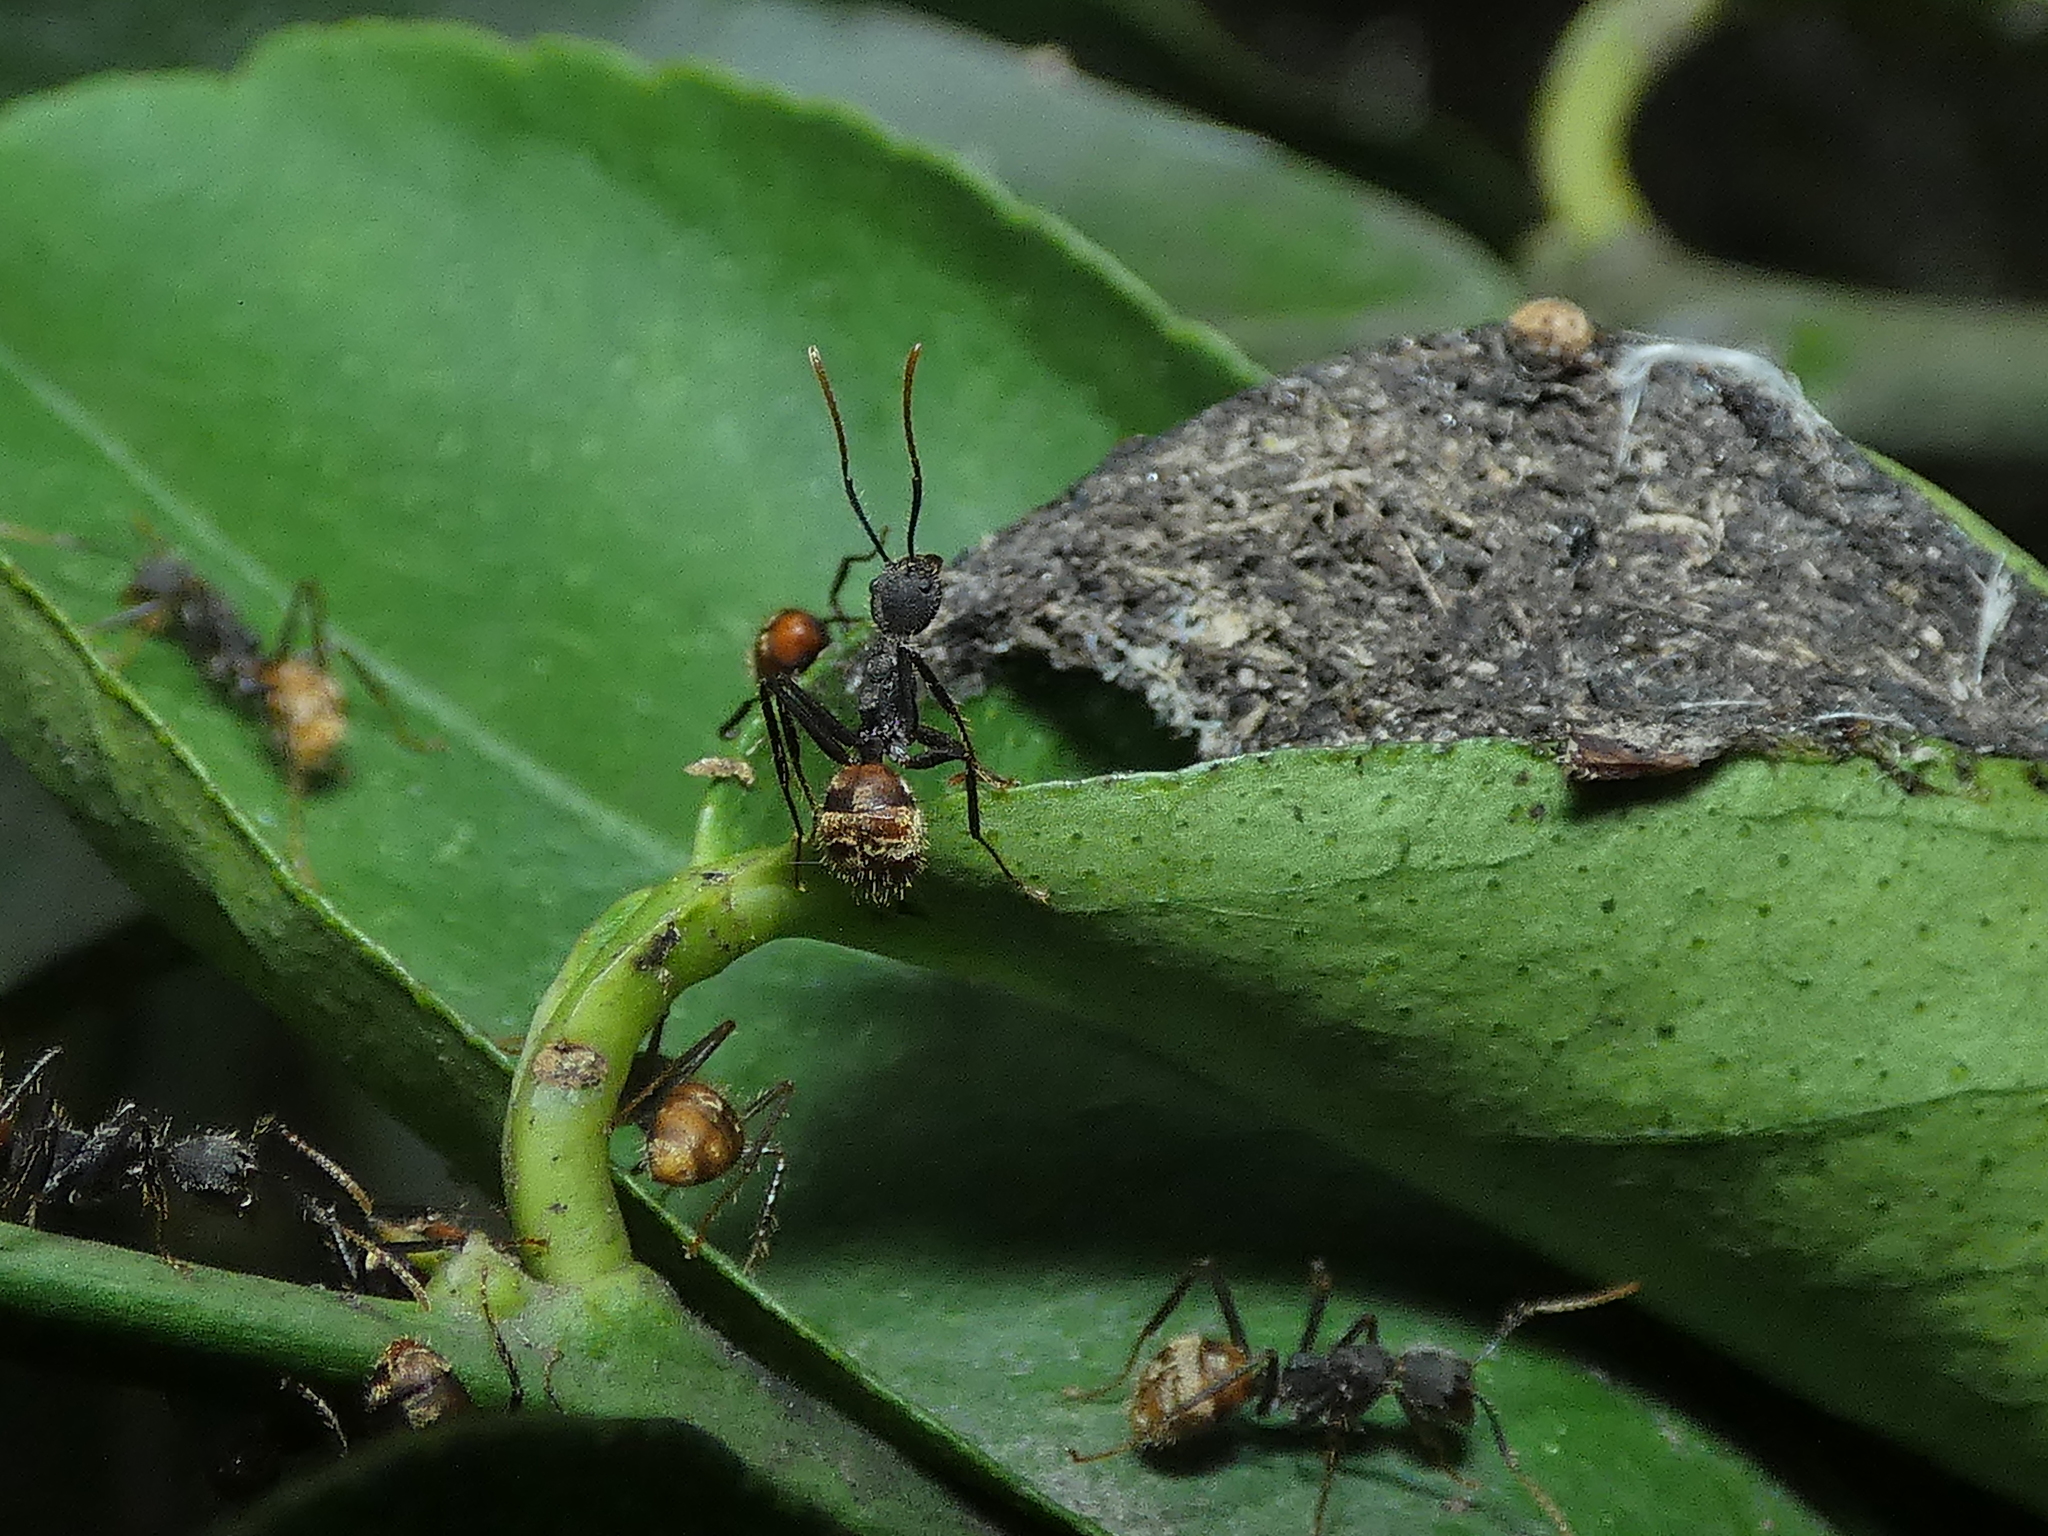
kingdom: Animalia
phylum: Arthropoda
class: Insecta
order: Hymenoptera
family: Formicidae
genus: Dolichoderus
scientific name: Dolichoderus bidens
